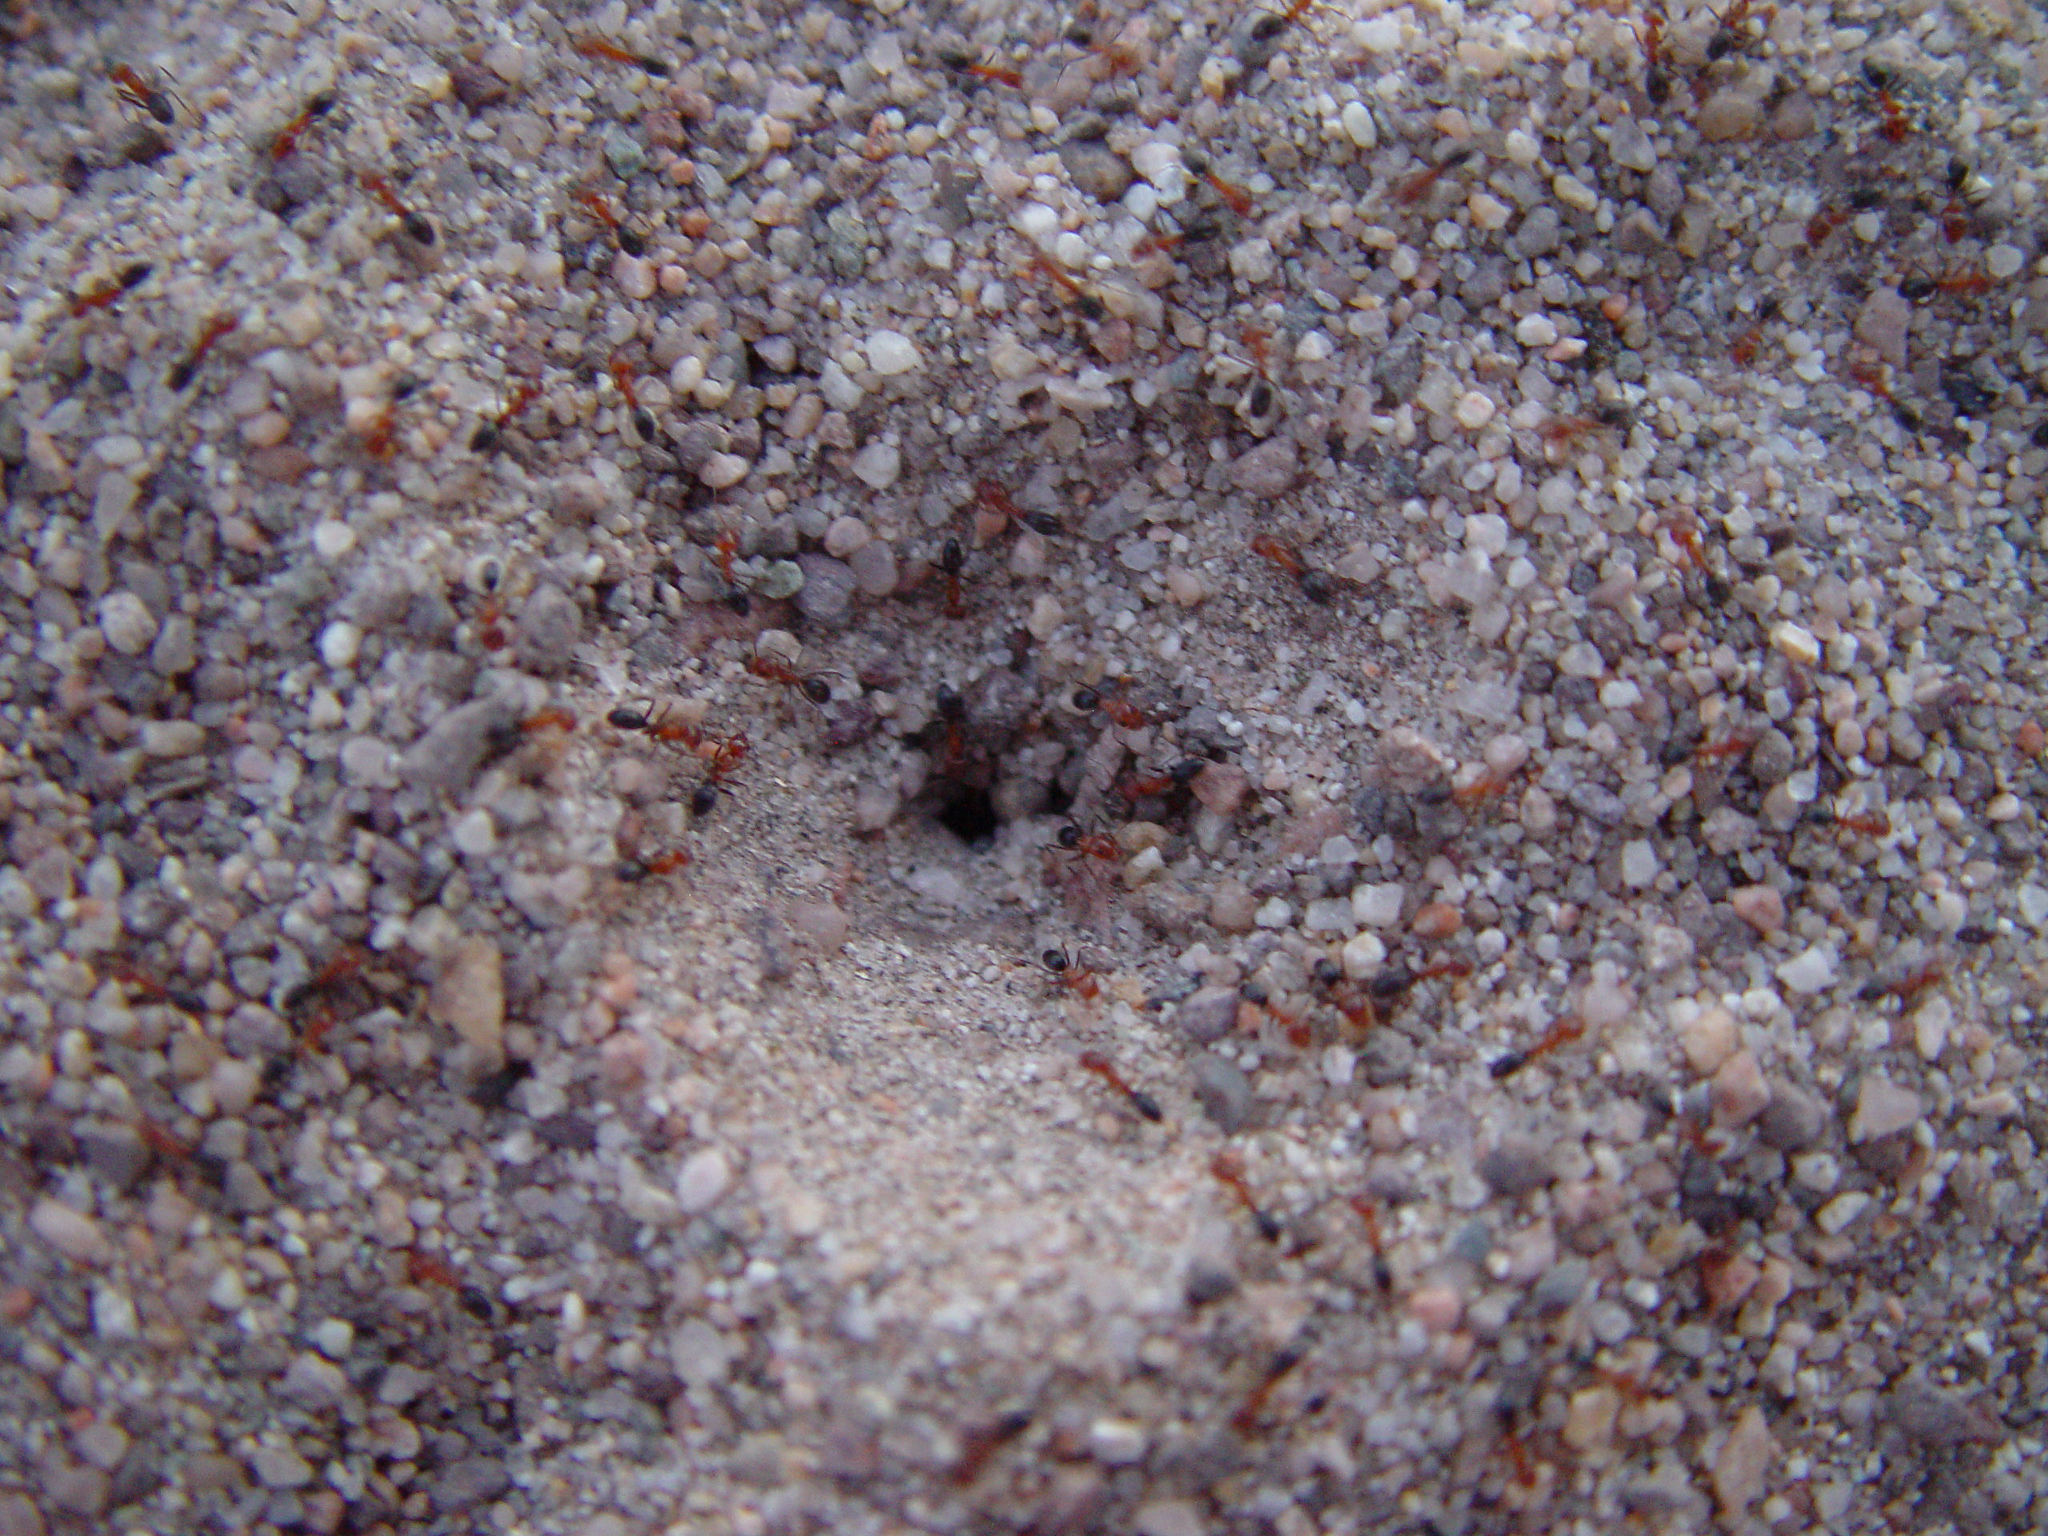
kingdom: Animalia
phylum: Arthropoda
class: Insecta
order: Hymenoptera
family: Formicidae
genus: Dorymyrmex
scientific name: Dorymyrmex bicolor
